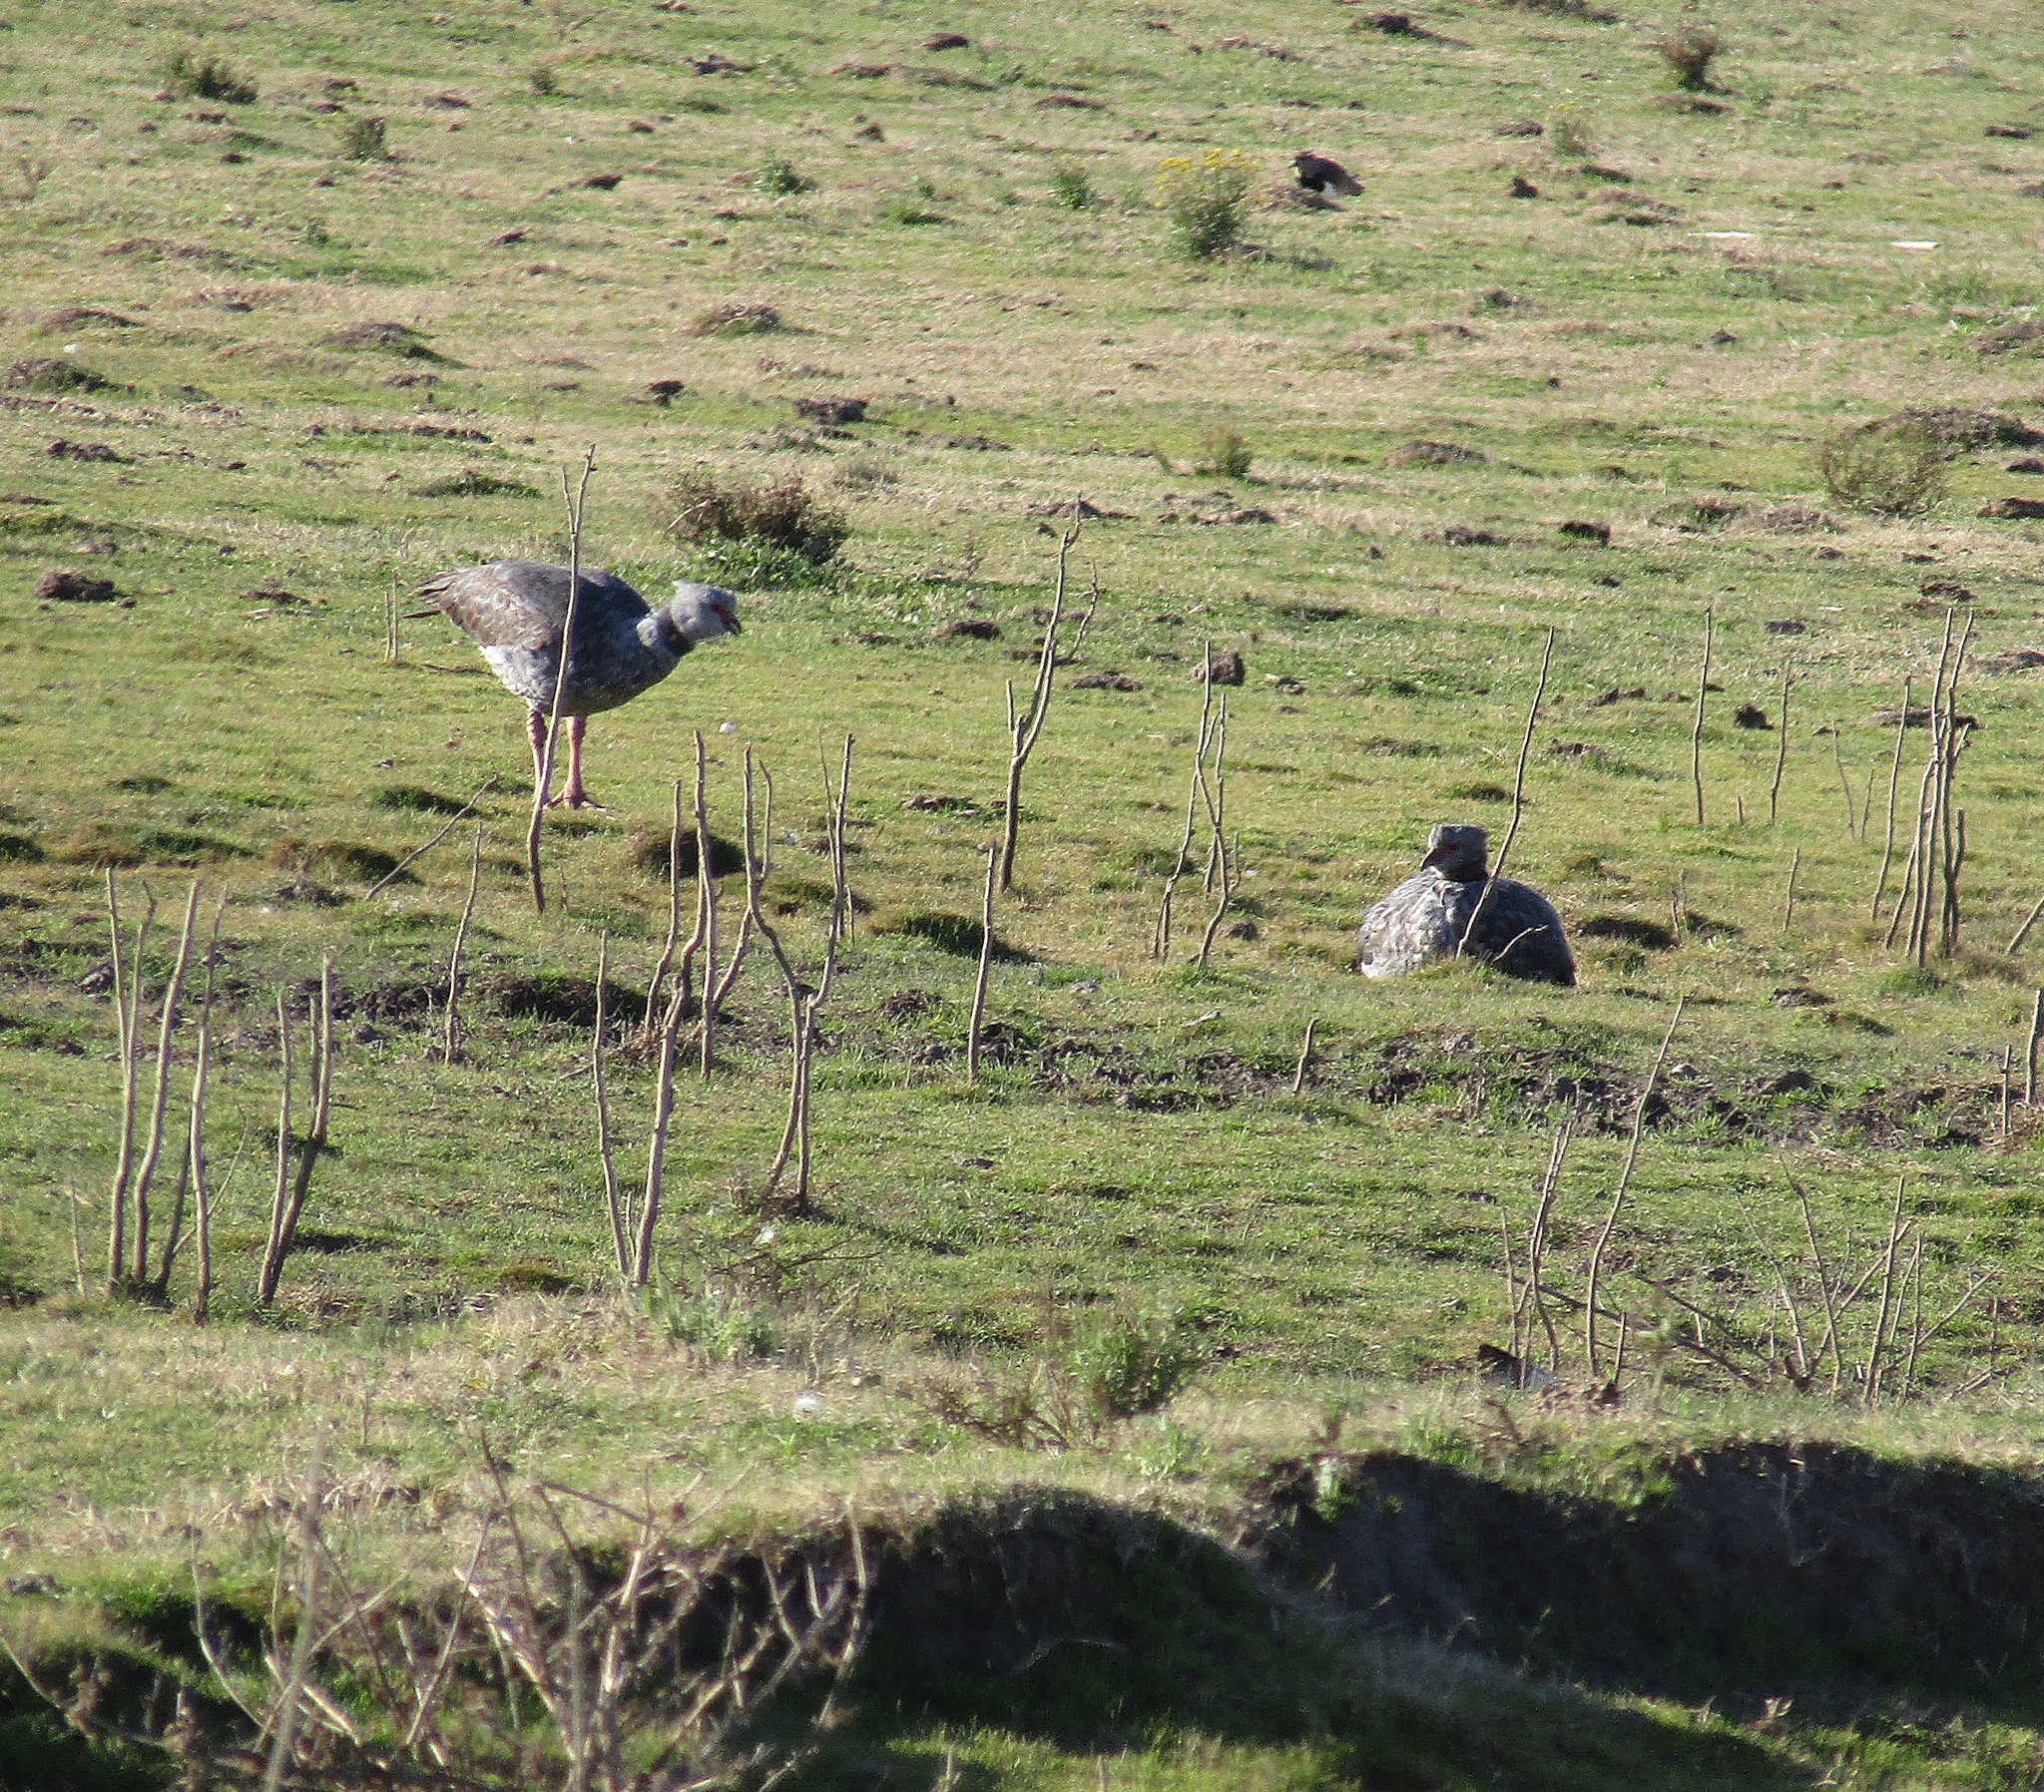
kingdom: Animalia
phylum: Chordata
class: Aves
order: Anseriformes
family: Anhimidae
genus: Chauna
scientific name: Chauna torquata
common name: Southern screamer
